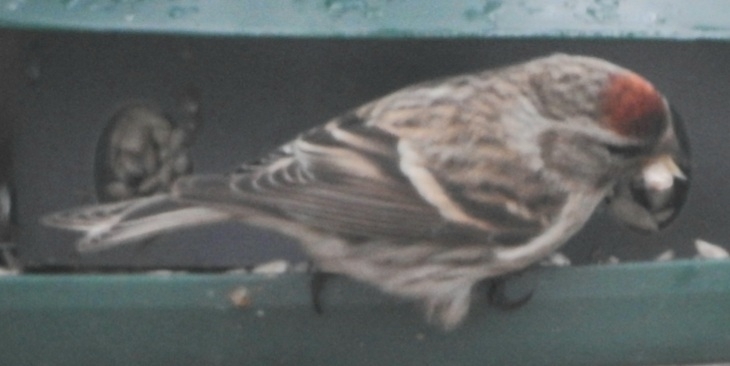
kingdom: Animalia
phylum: Chordata
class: Aves
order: Passeriformes
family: Fringillidae
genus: Acanthis
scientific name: Acanthis flammea
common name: Common redpoll
